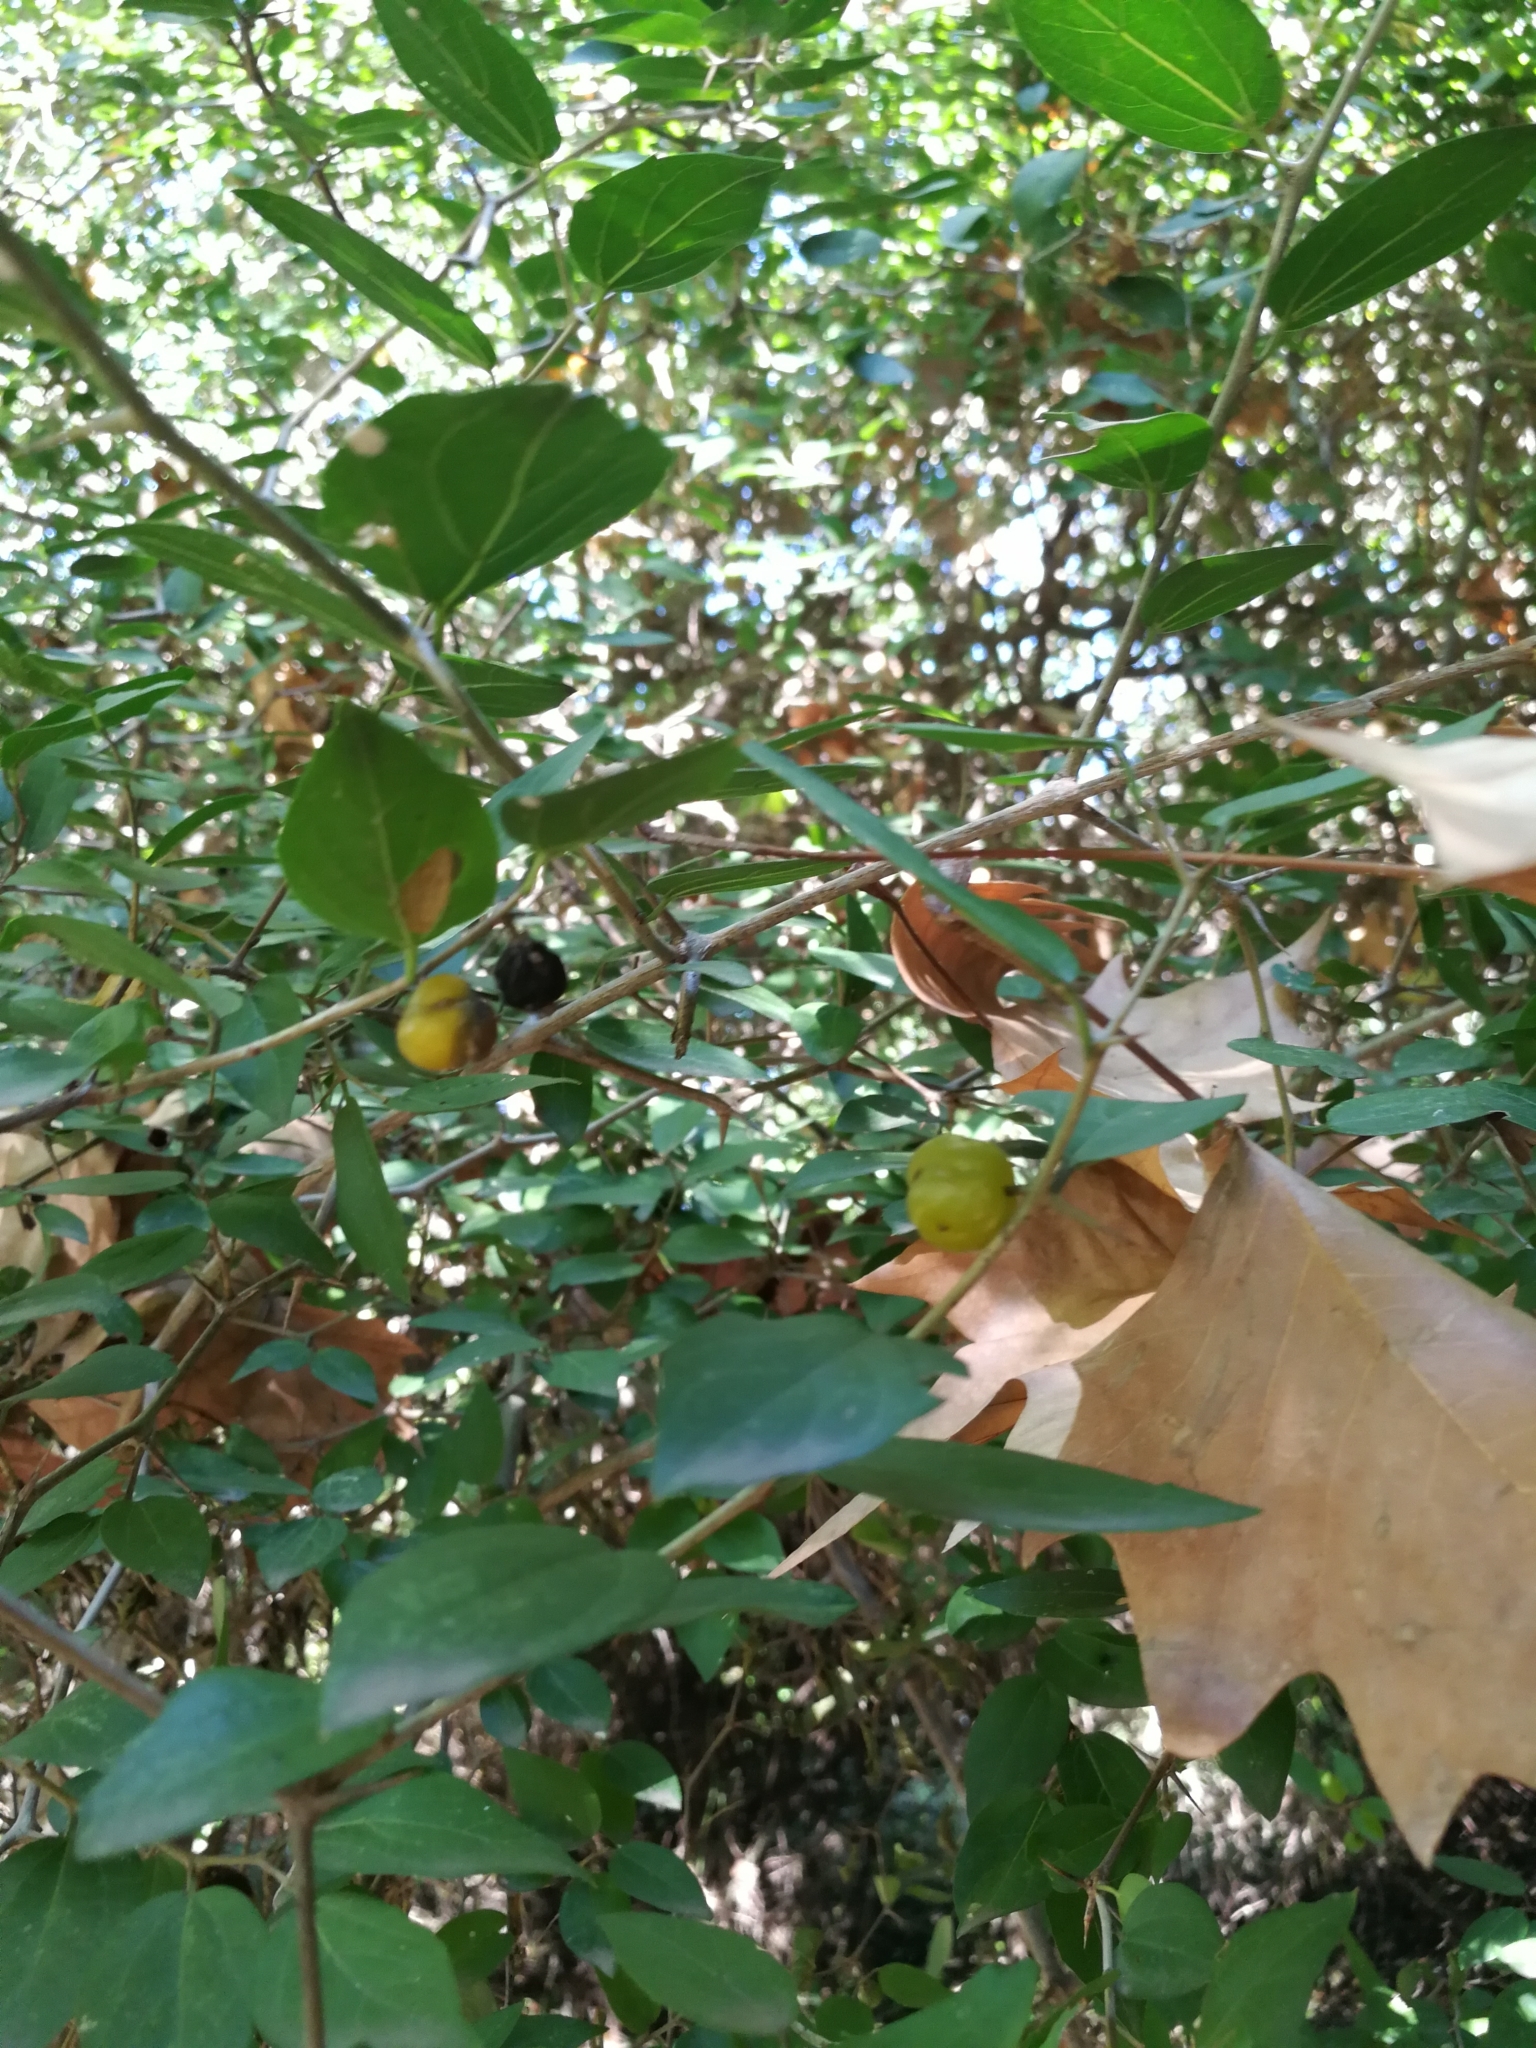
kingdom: Plantae
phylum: Tracheophyta
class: Magnoliopsida
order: Rosales
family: Cannabaceae
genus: Celtis
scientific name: Celtis tala
